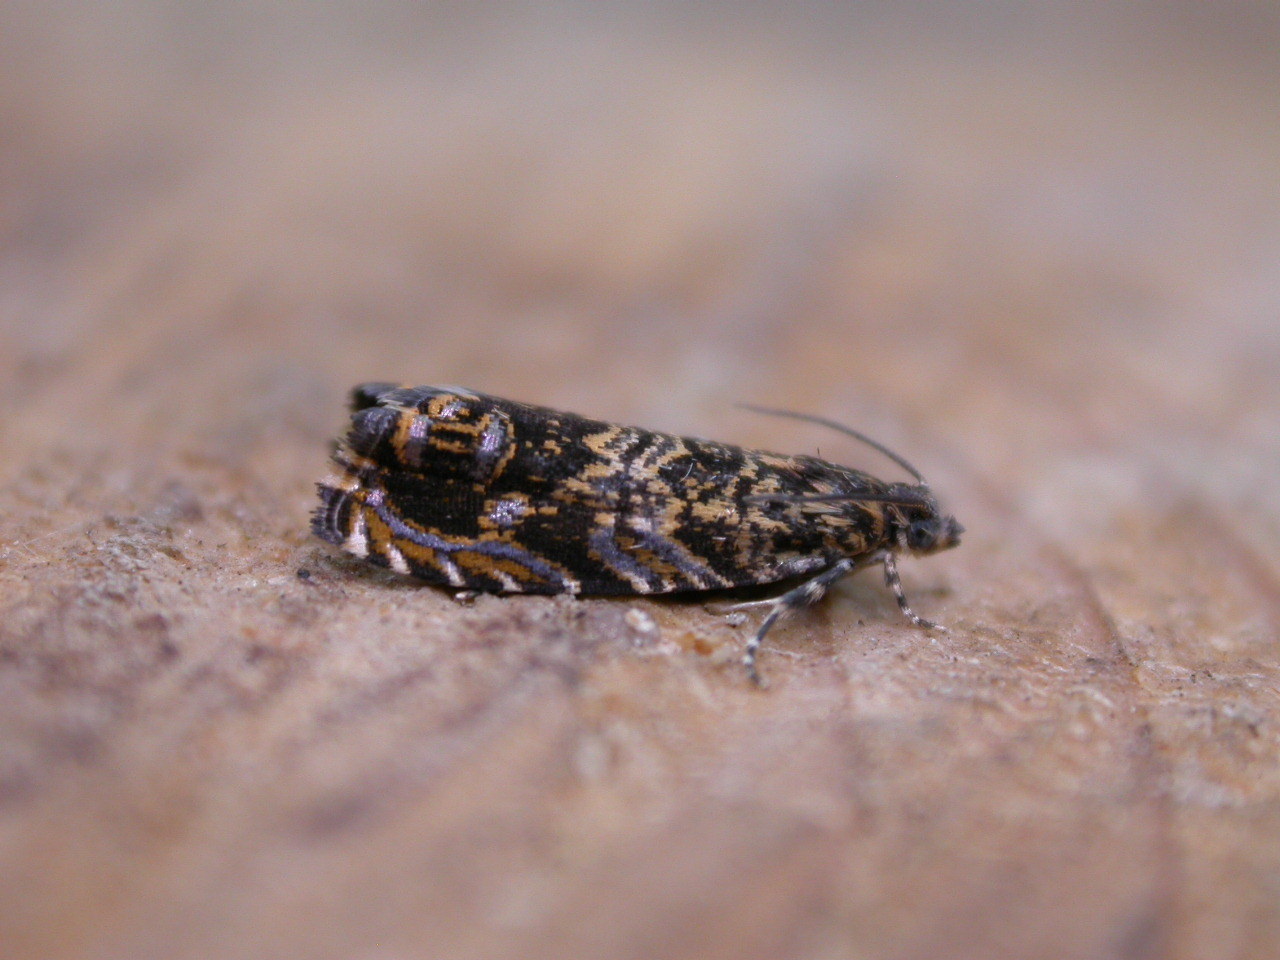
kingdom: Animalia
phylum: Arthropoda
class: Insecta
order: Lepidoptera
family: Tortricidae
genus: Enarmonia
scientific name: Enarmonia formosana
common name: Cherry bark tortrix
